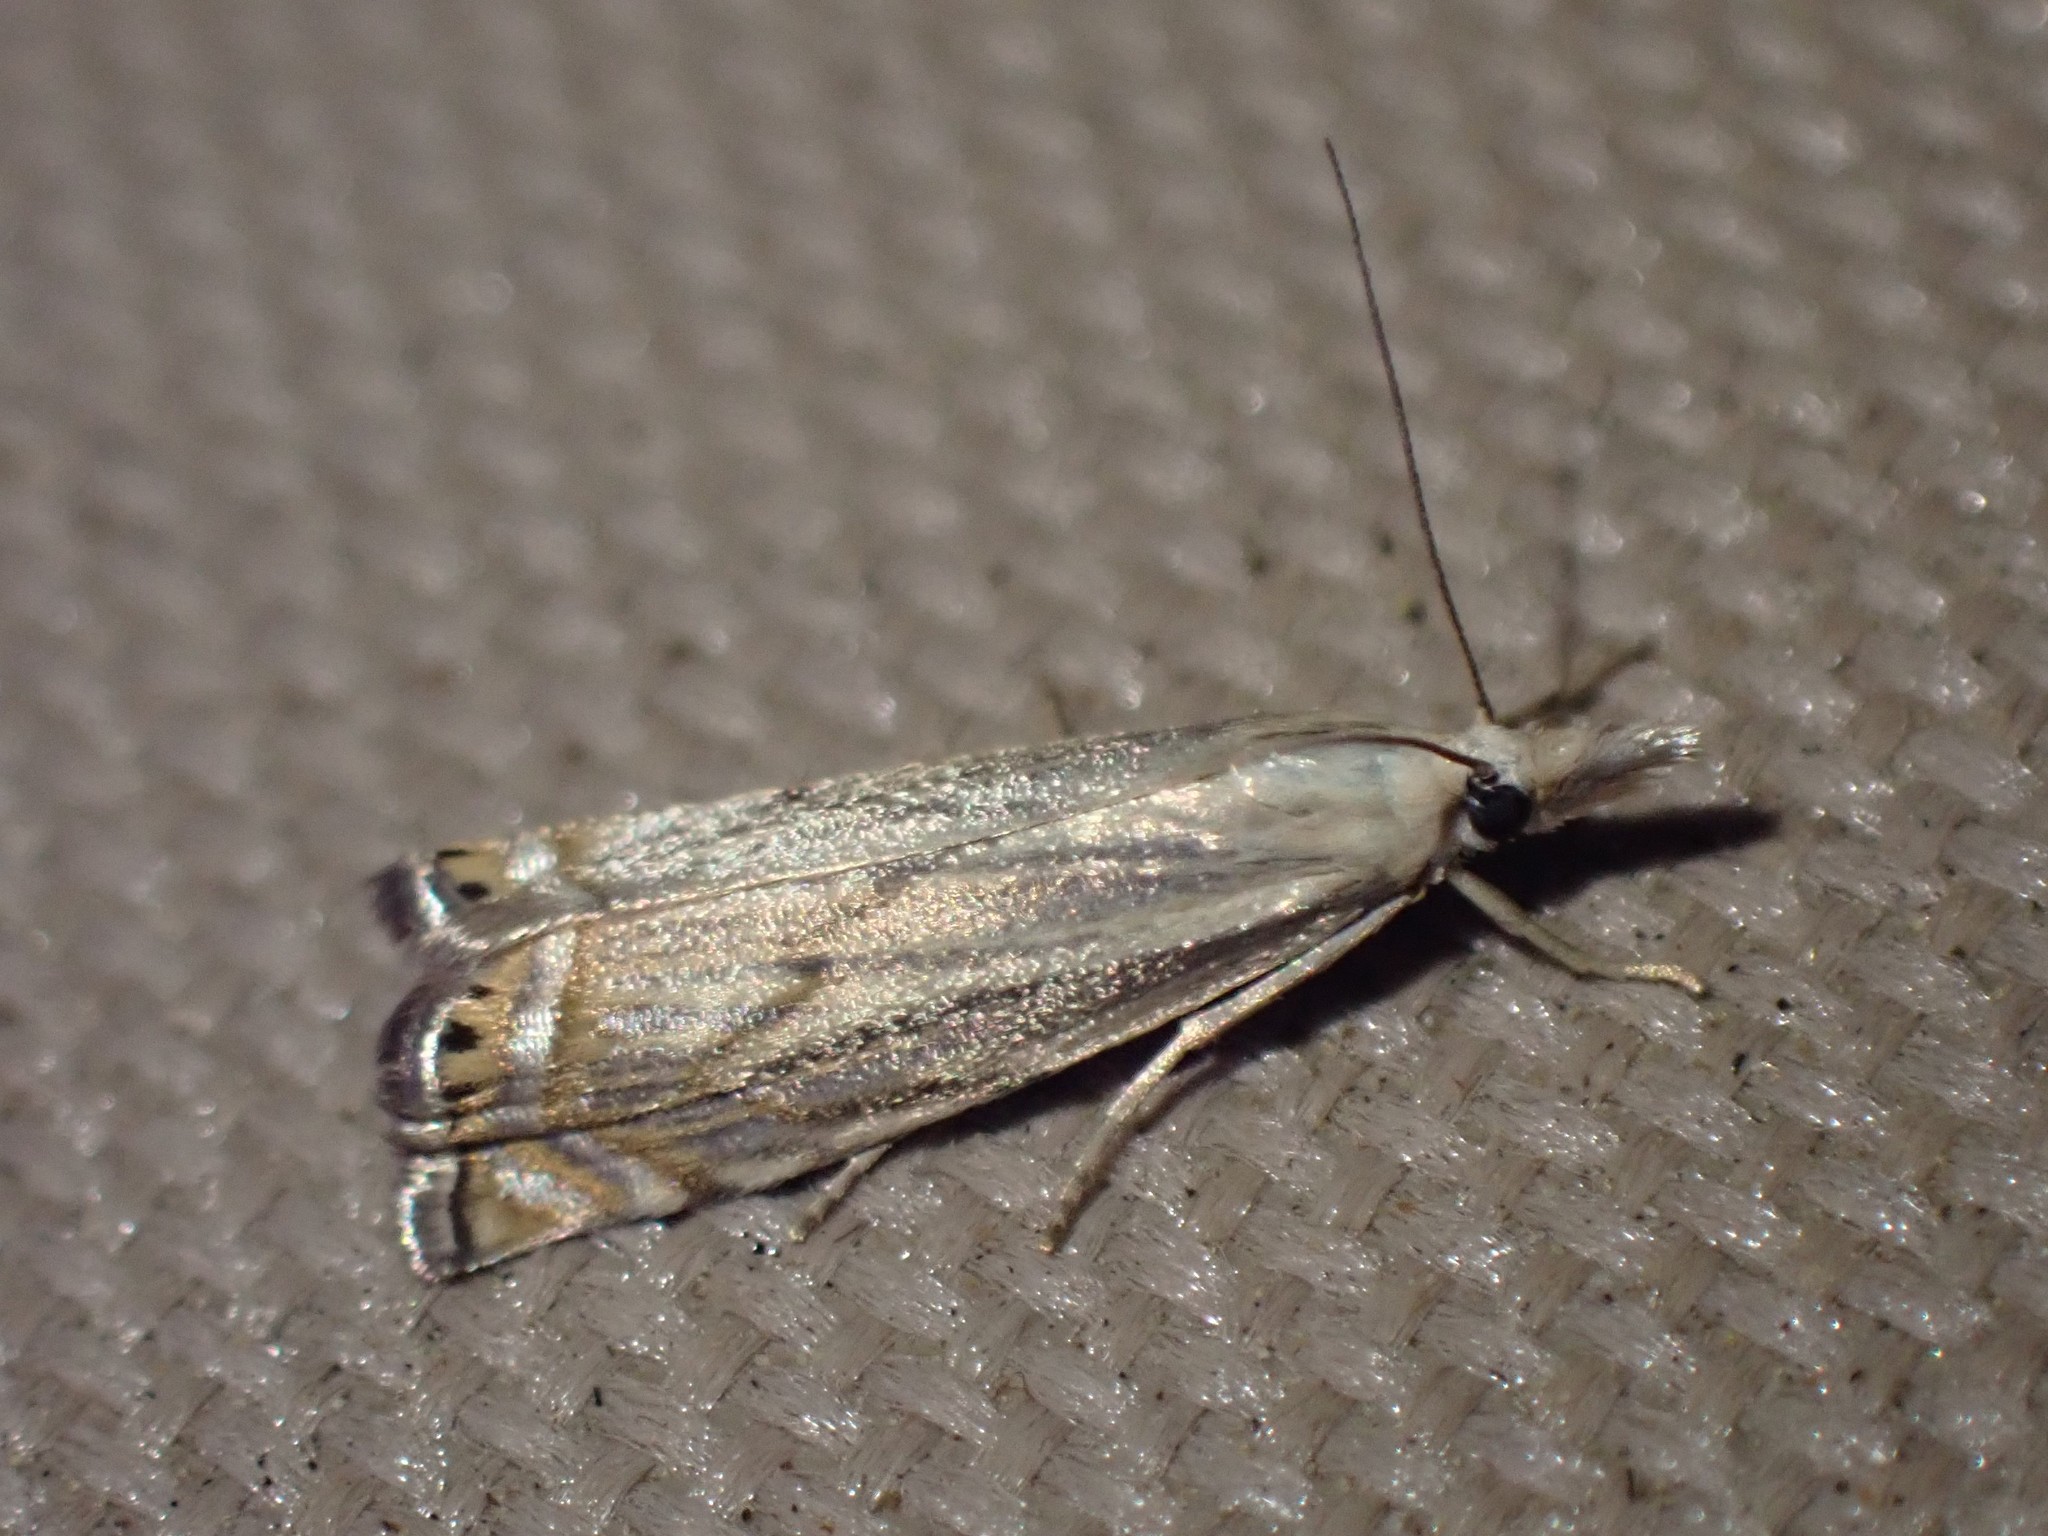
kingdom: Animalia
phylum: Arthropoda
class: Insecta
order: Lepidoptera
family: Crambidae
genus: Chrysoteuchia
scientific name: Chrysoteuchia topiarius
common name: Topiary grass-veneer
